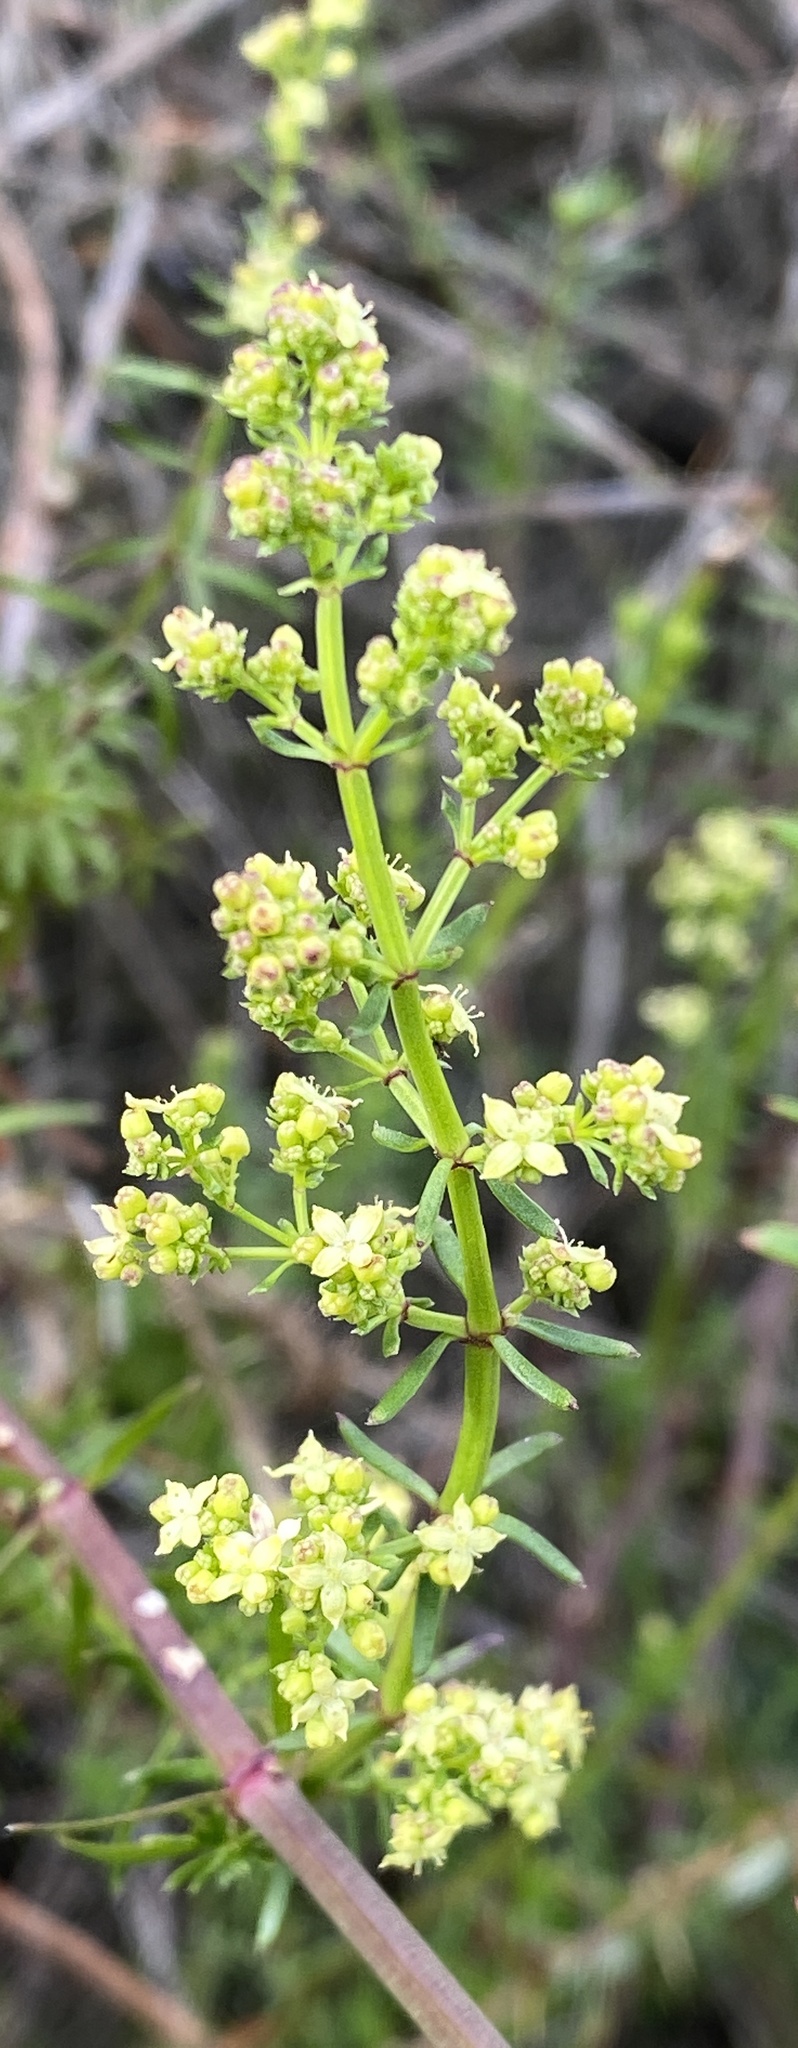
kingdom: Plantae
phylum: Tracheophyta
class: Magnoliopsida
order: Gentianales
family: Rubiaceae
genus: Galium
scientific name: Galium angustifolium
